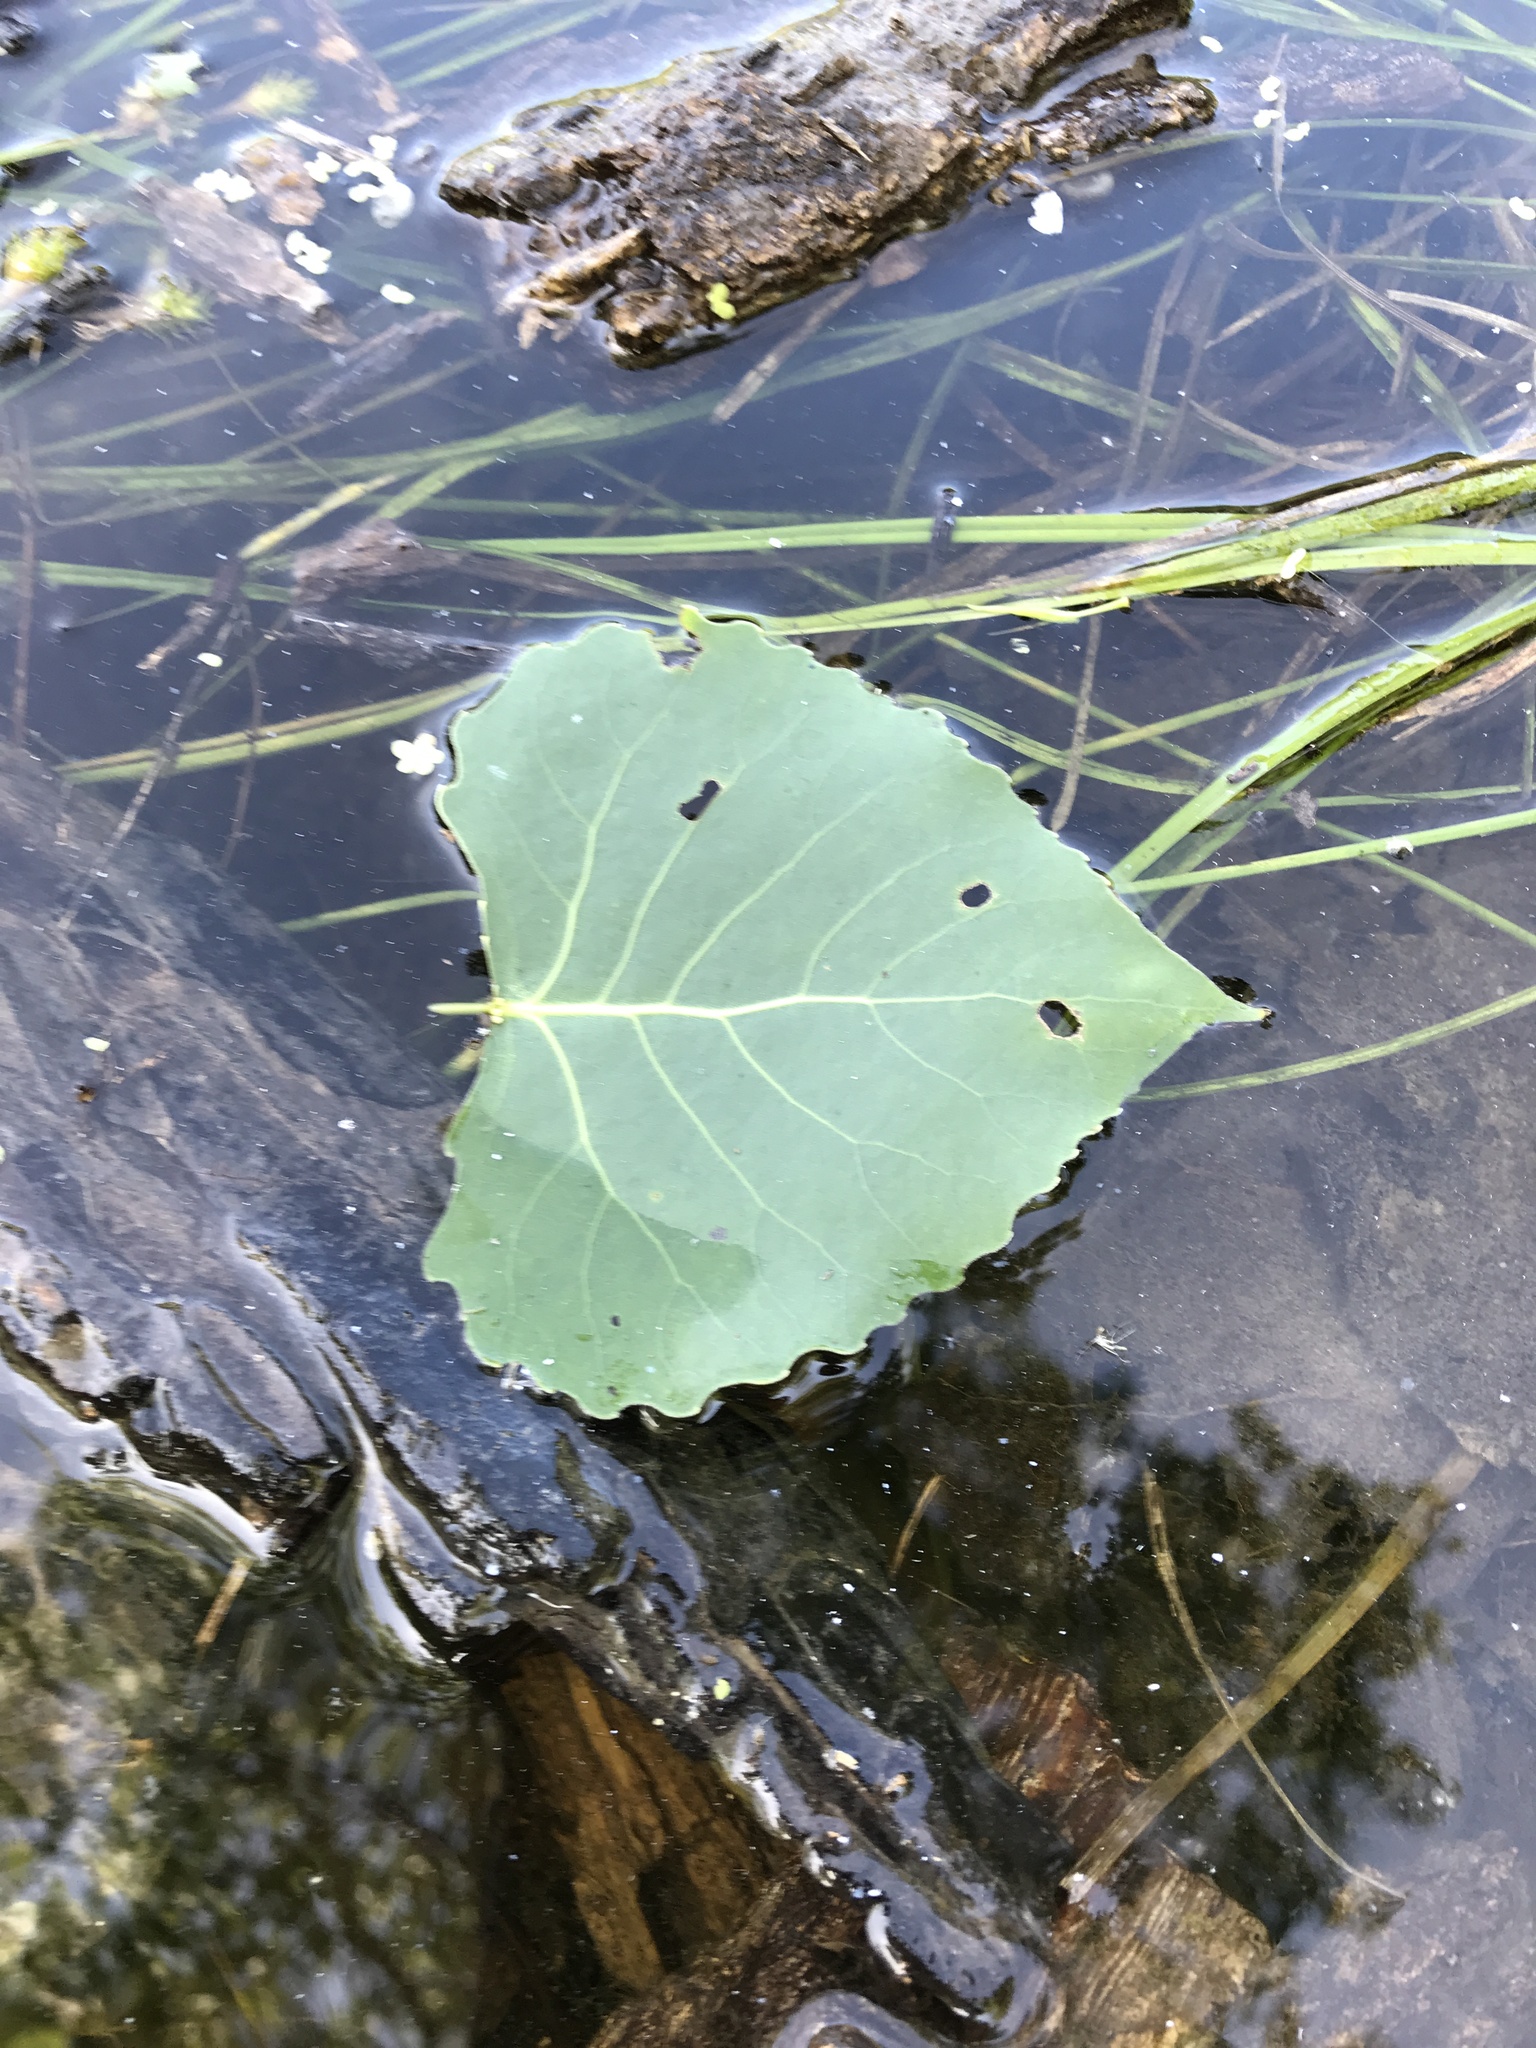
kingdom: Plantae
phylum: Tracheophyta
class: Magnoliopsida
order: Malpighiales
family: Salicaceae
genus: Populus
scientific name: Populus deltoides
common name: Eastern cottonwood
